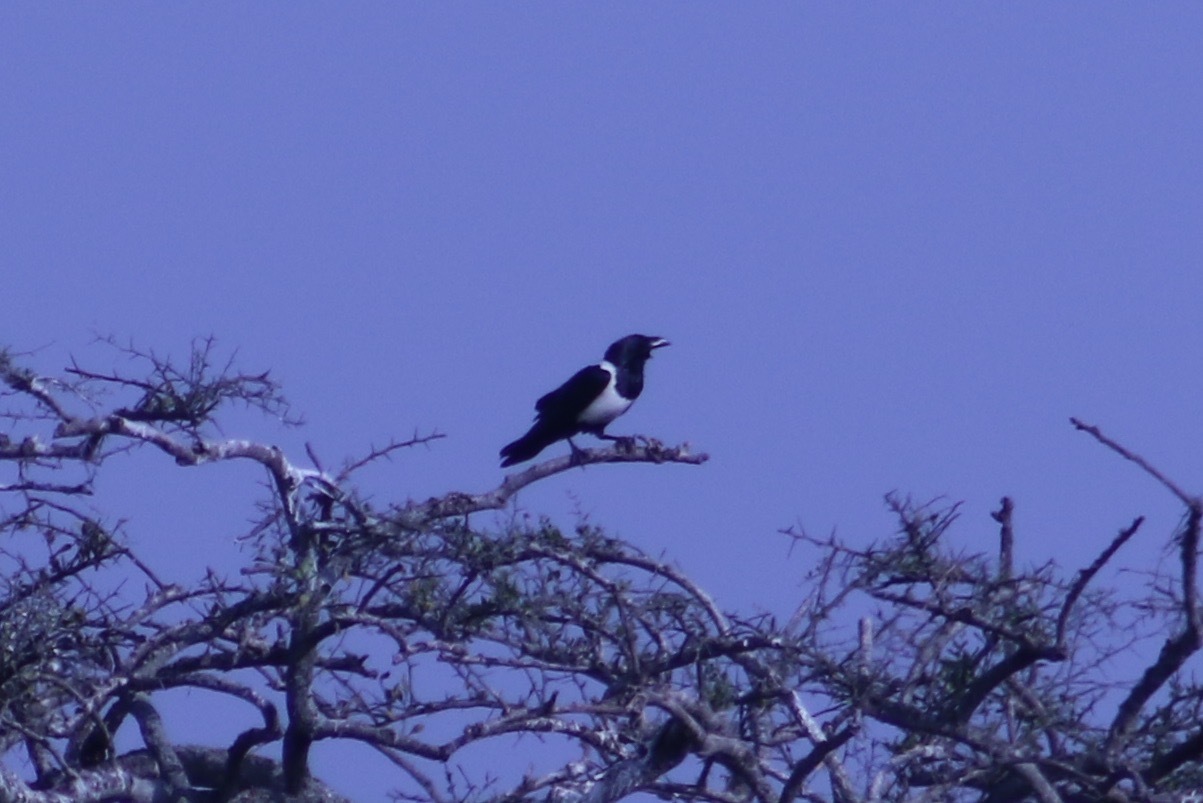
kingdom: Animalia
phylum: Chordata
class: Aves
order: Passeriformes
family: Corvidae
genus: Corvus
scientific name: Corvus albus
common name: Pied crow
